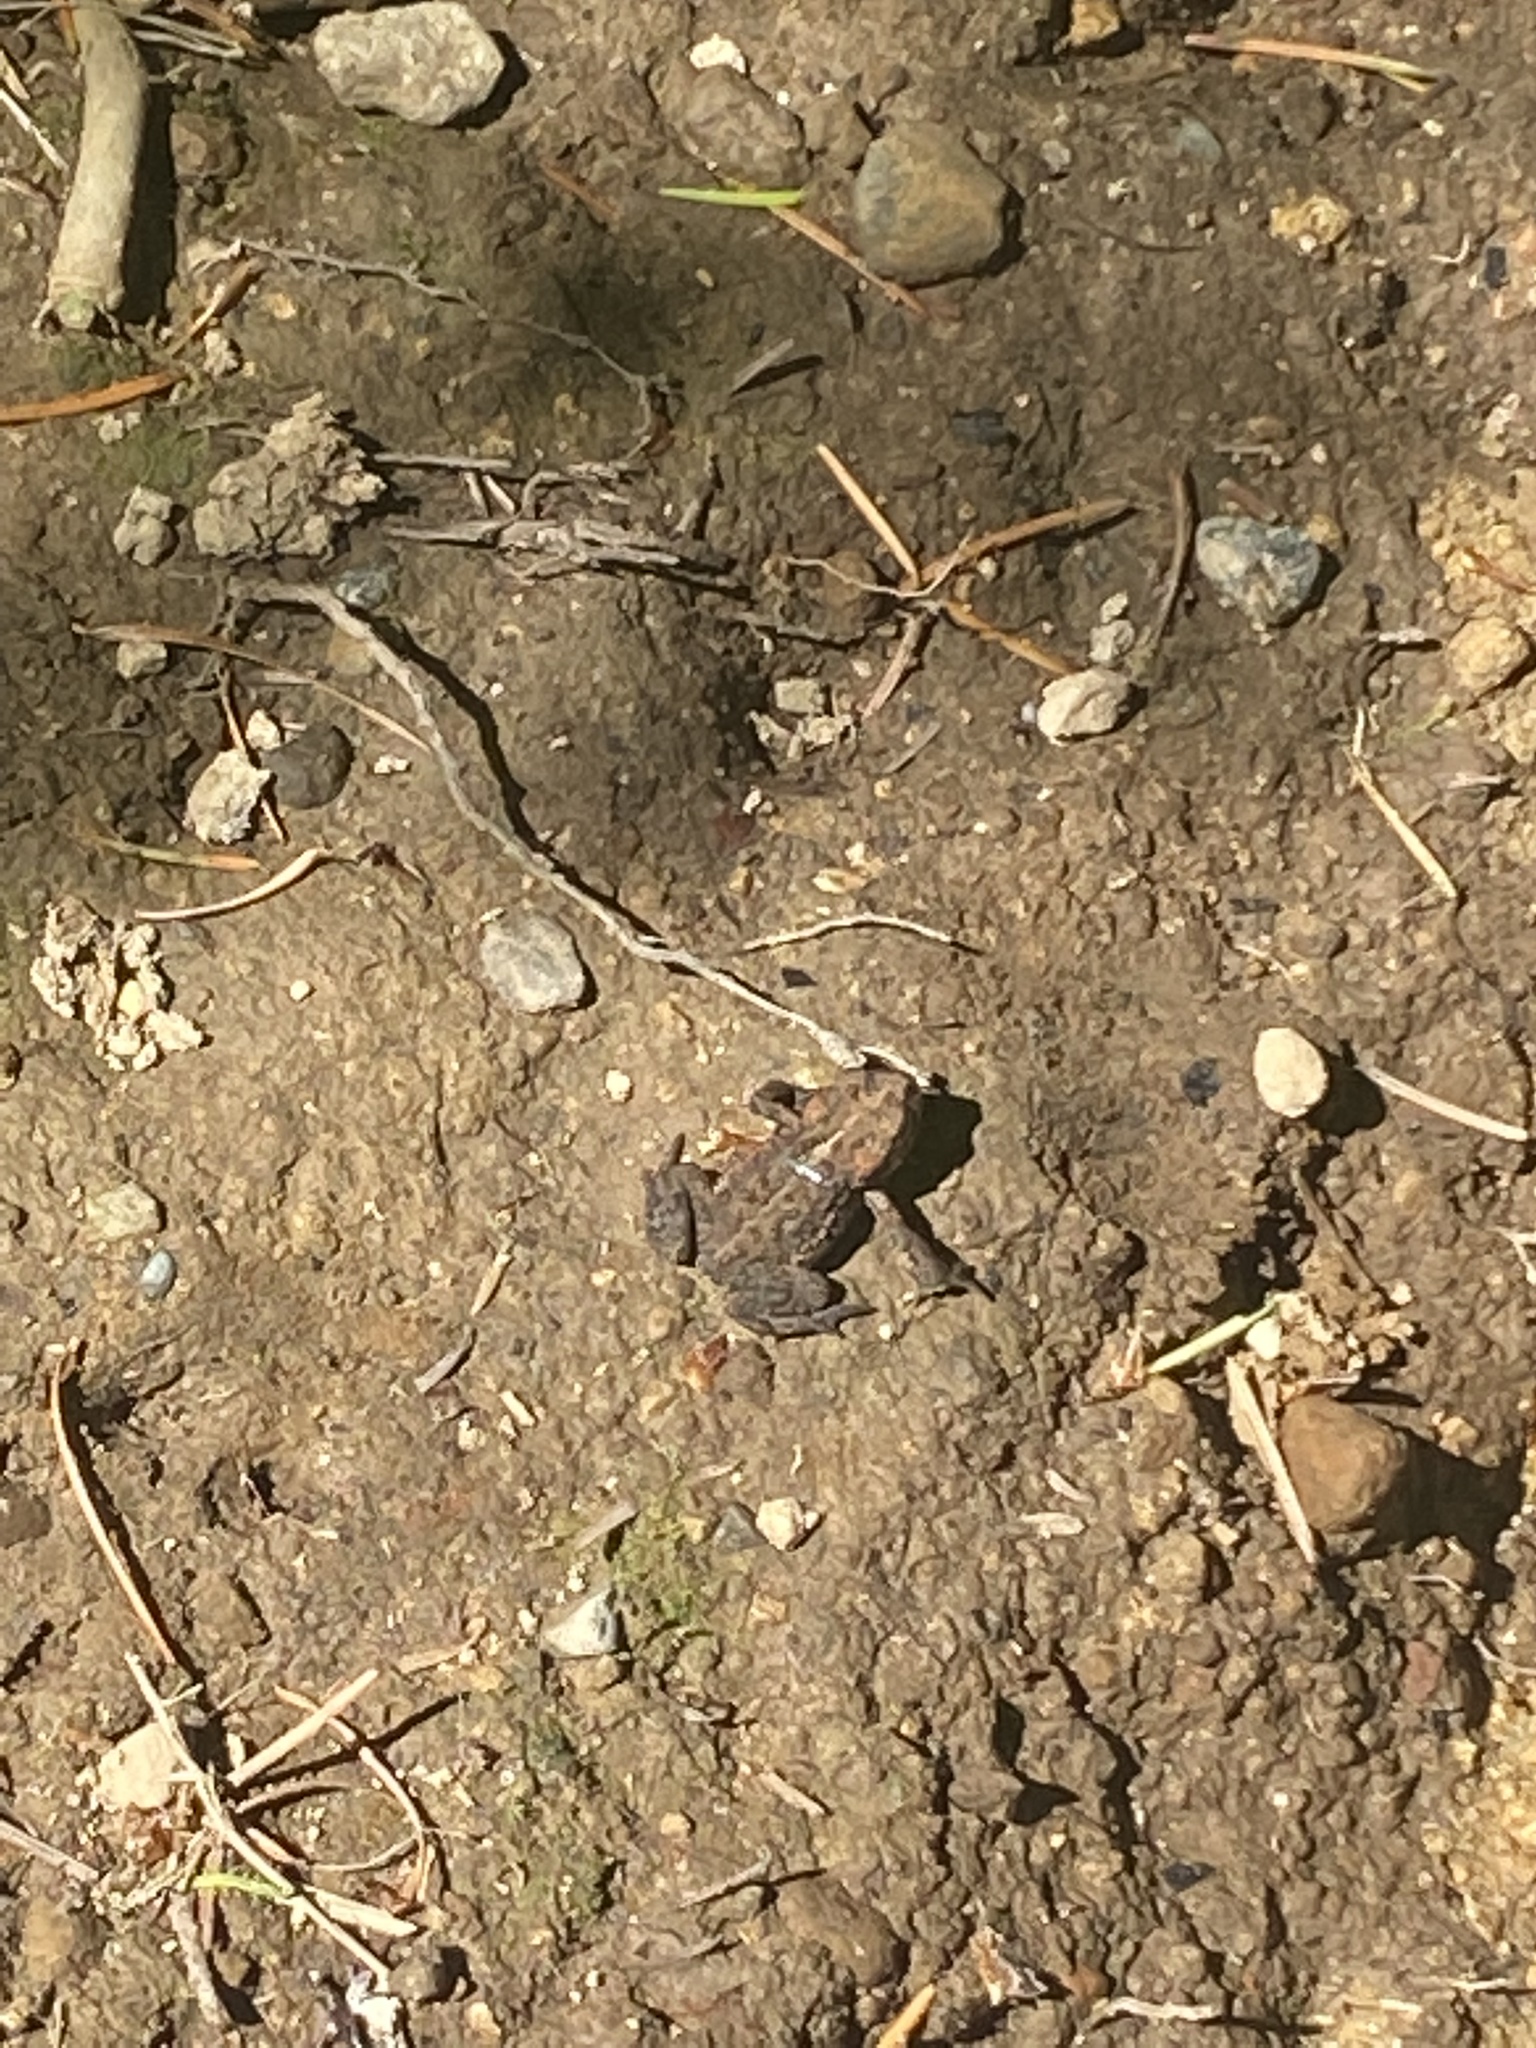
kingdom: Animalia
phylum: Chordata
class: Amphibia
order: Anura
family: Bufonidae
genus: Anaxyrus
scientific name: Anaxyrus boreas
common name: Western toad
